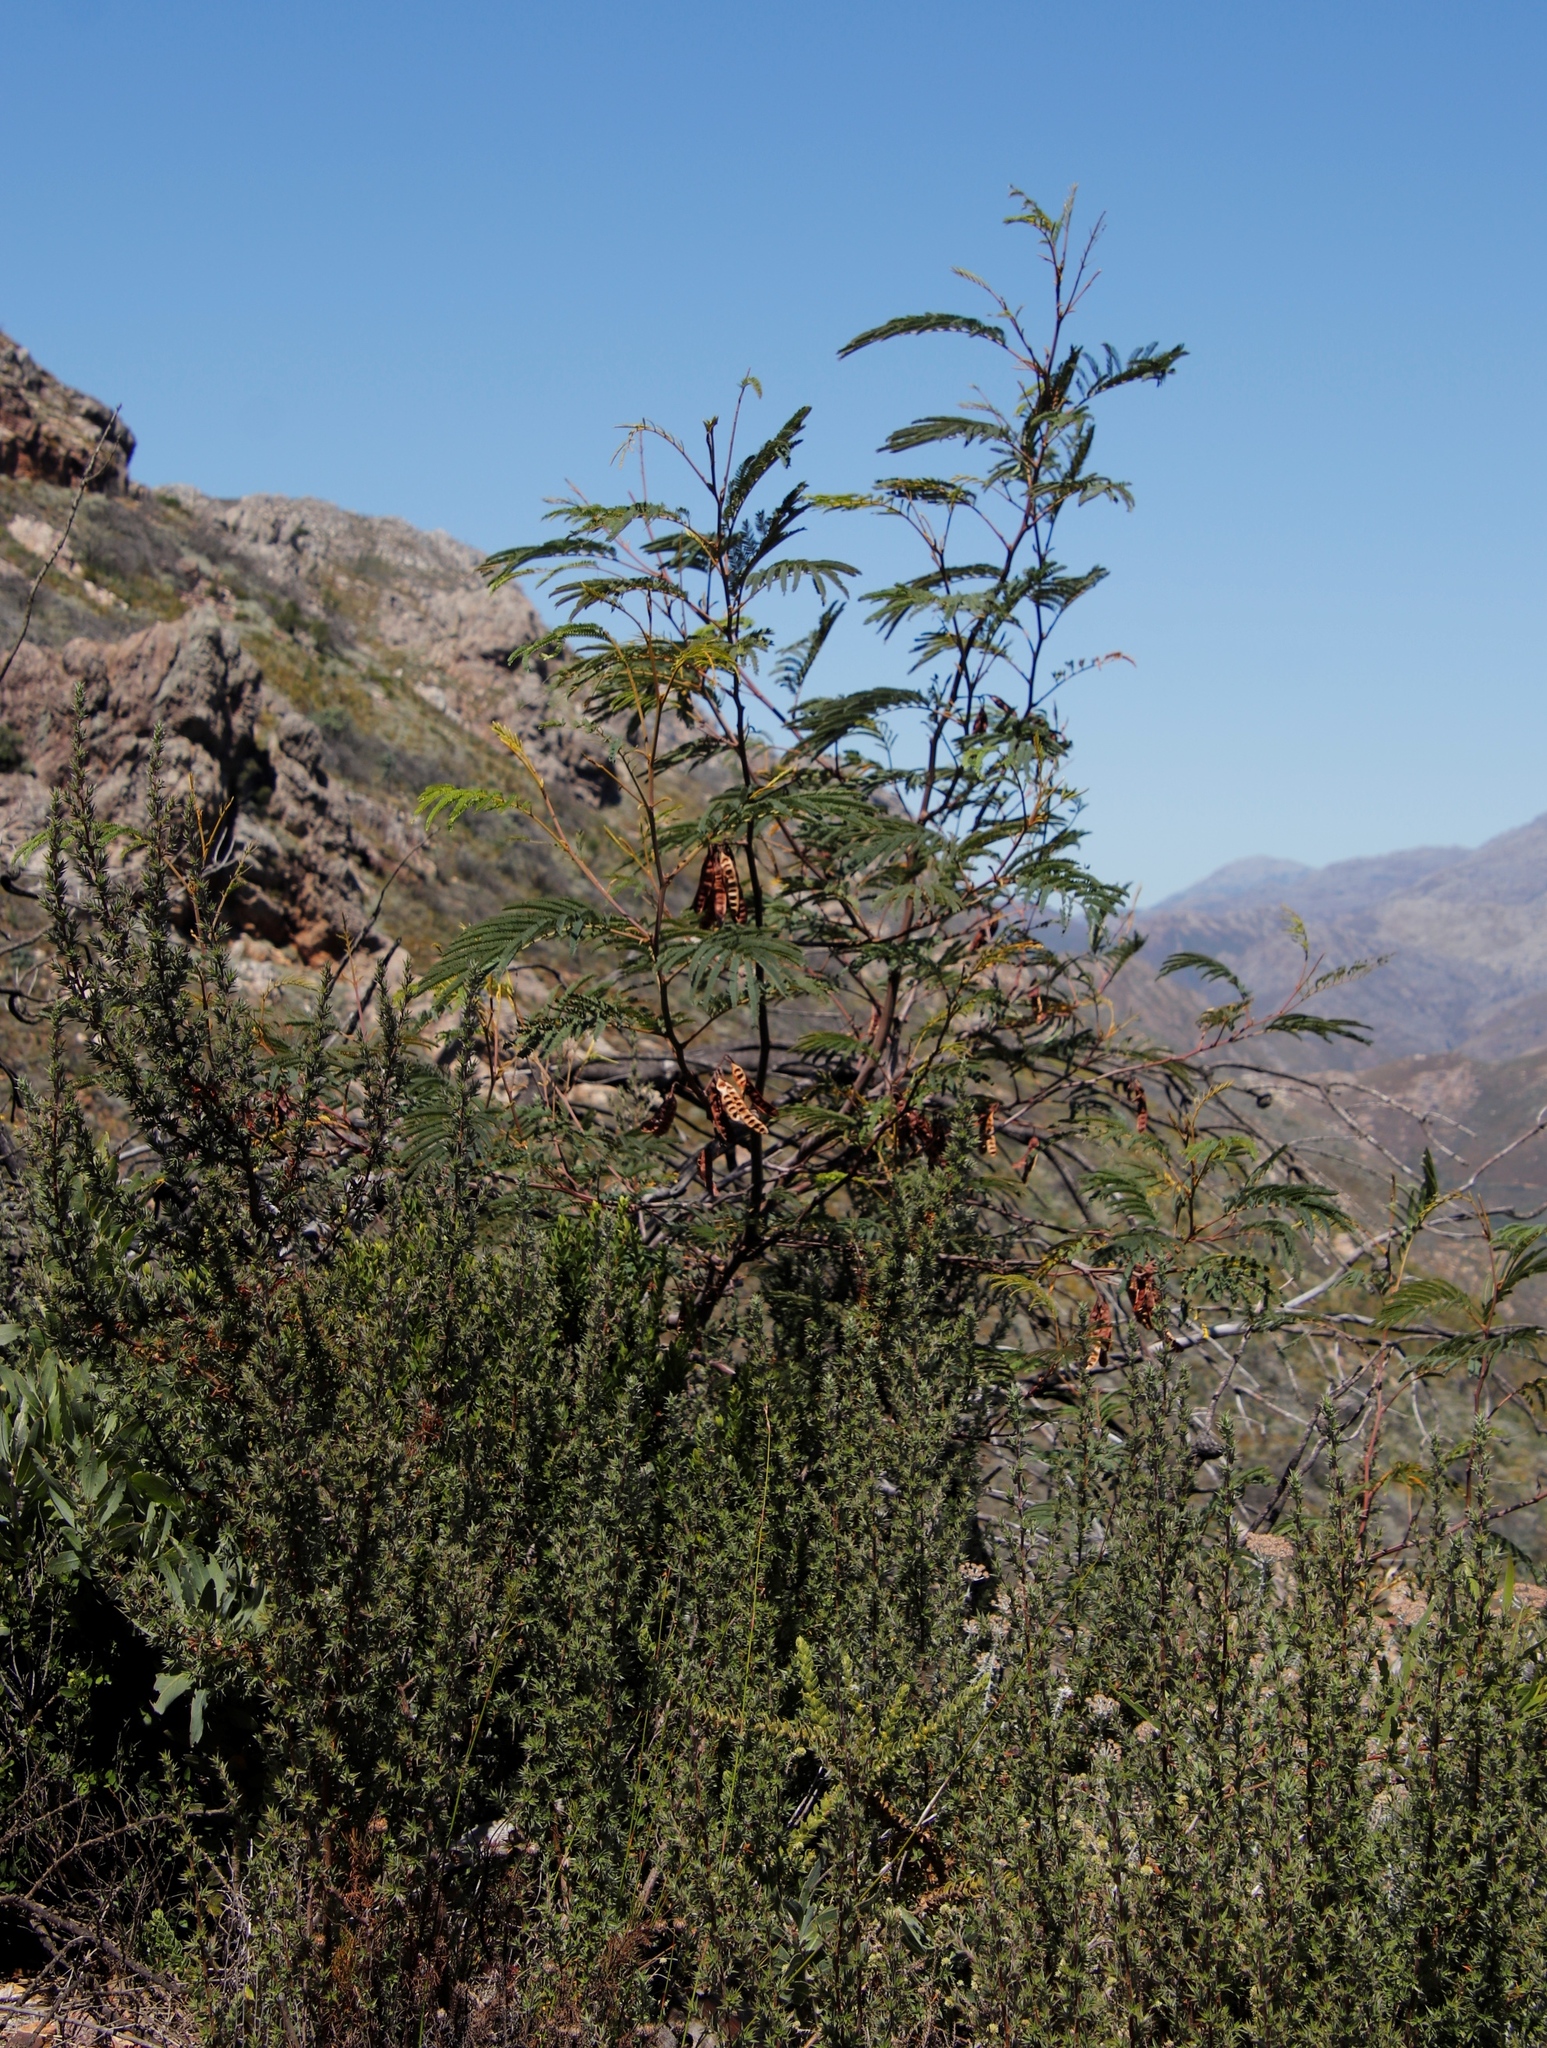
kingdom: Plantae
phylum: Tracheophyta
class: Magnoliopsida
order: Fabales
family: Fabaceae
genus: Paraserianthes
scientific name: Paraserianthes lophantha
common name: Plume albizia
